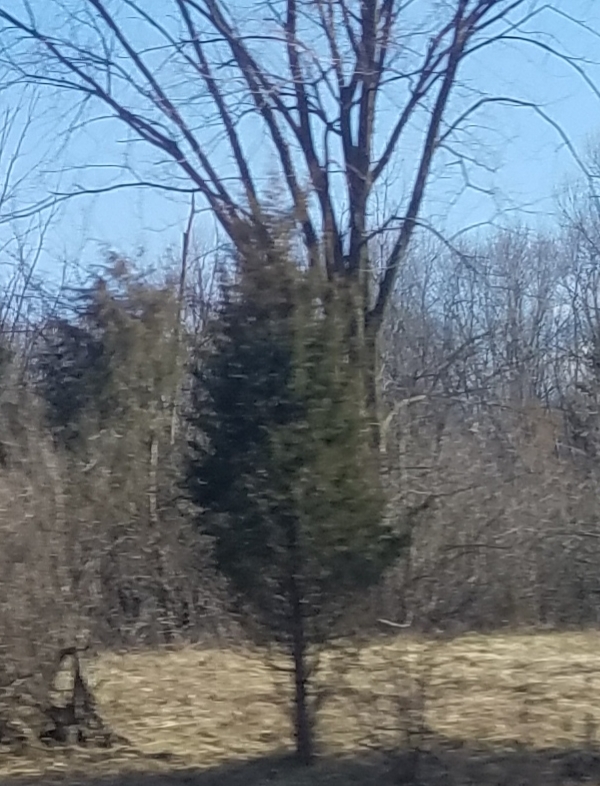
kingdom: Plantae
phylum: Tracheophyta
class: Pinopsida
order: Pinales
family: Cupressaceae
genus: Juniperus
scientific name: Juniperus virginiana
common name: Red juniper
